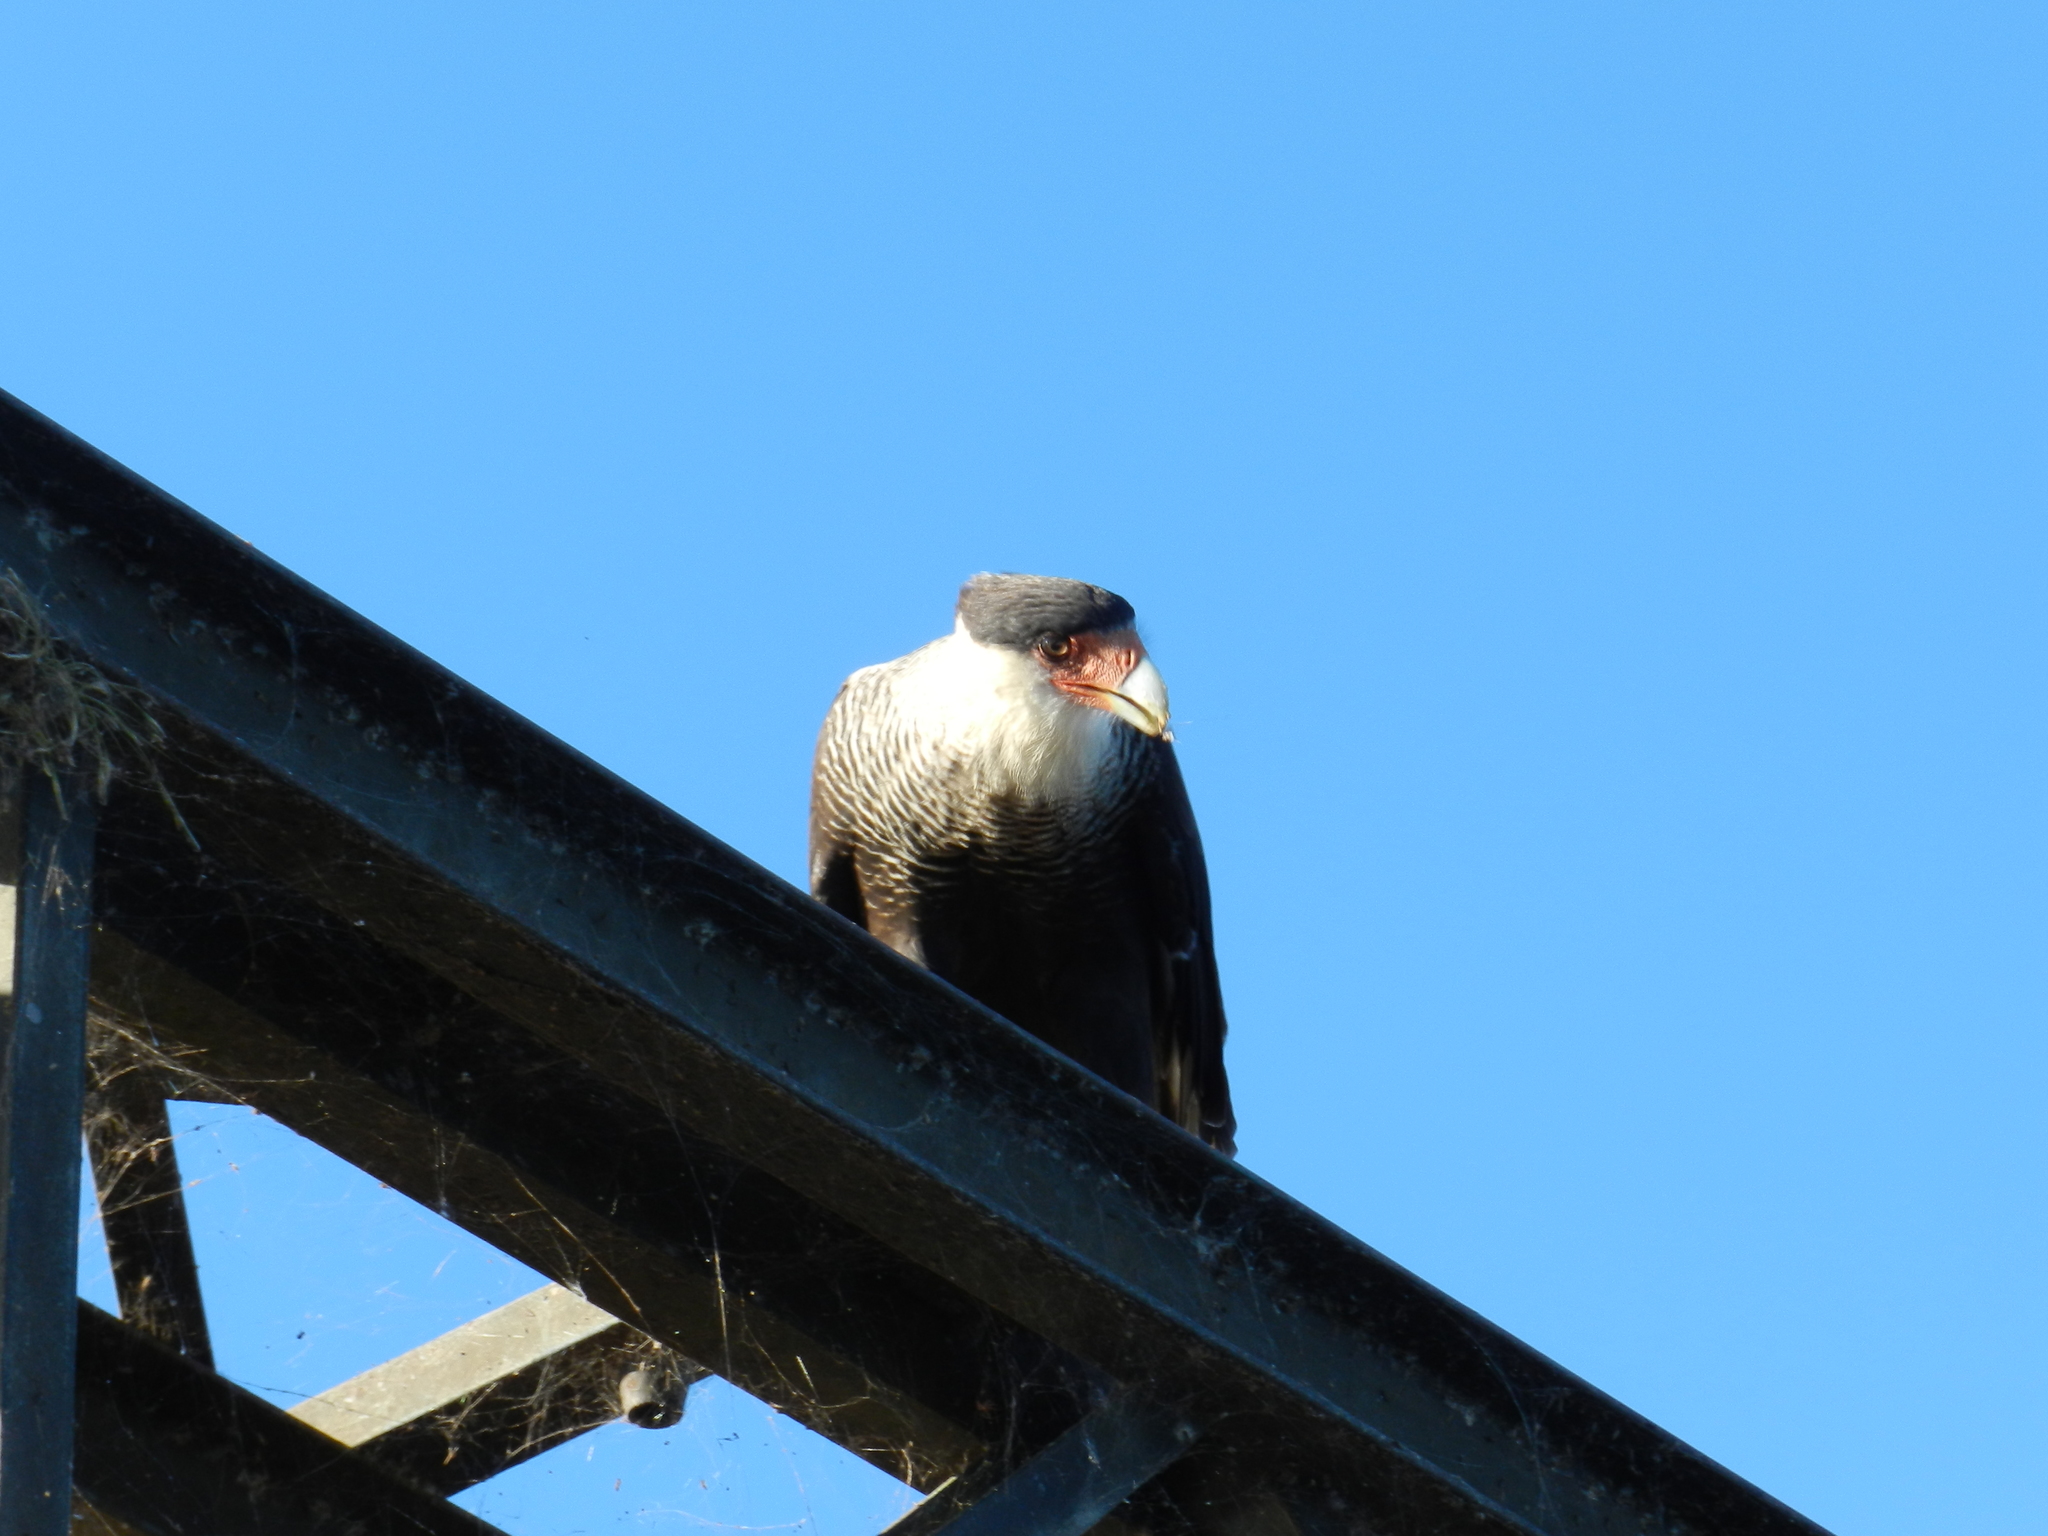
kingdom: Animalia
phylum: Chordata
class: Aves
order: Falconiformes
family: Falconidae
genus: Caracara
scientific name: Caracara plancus
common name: Southern caracara
